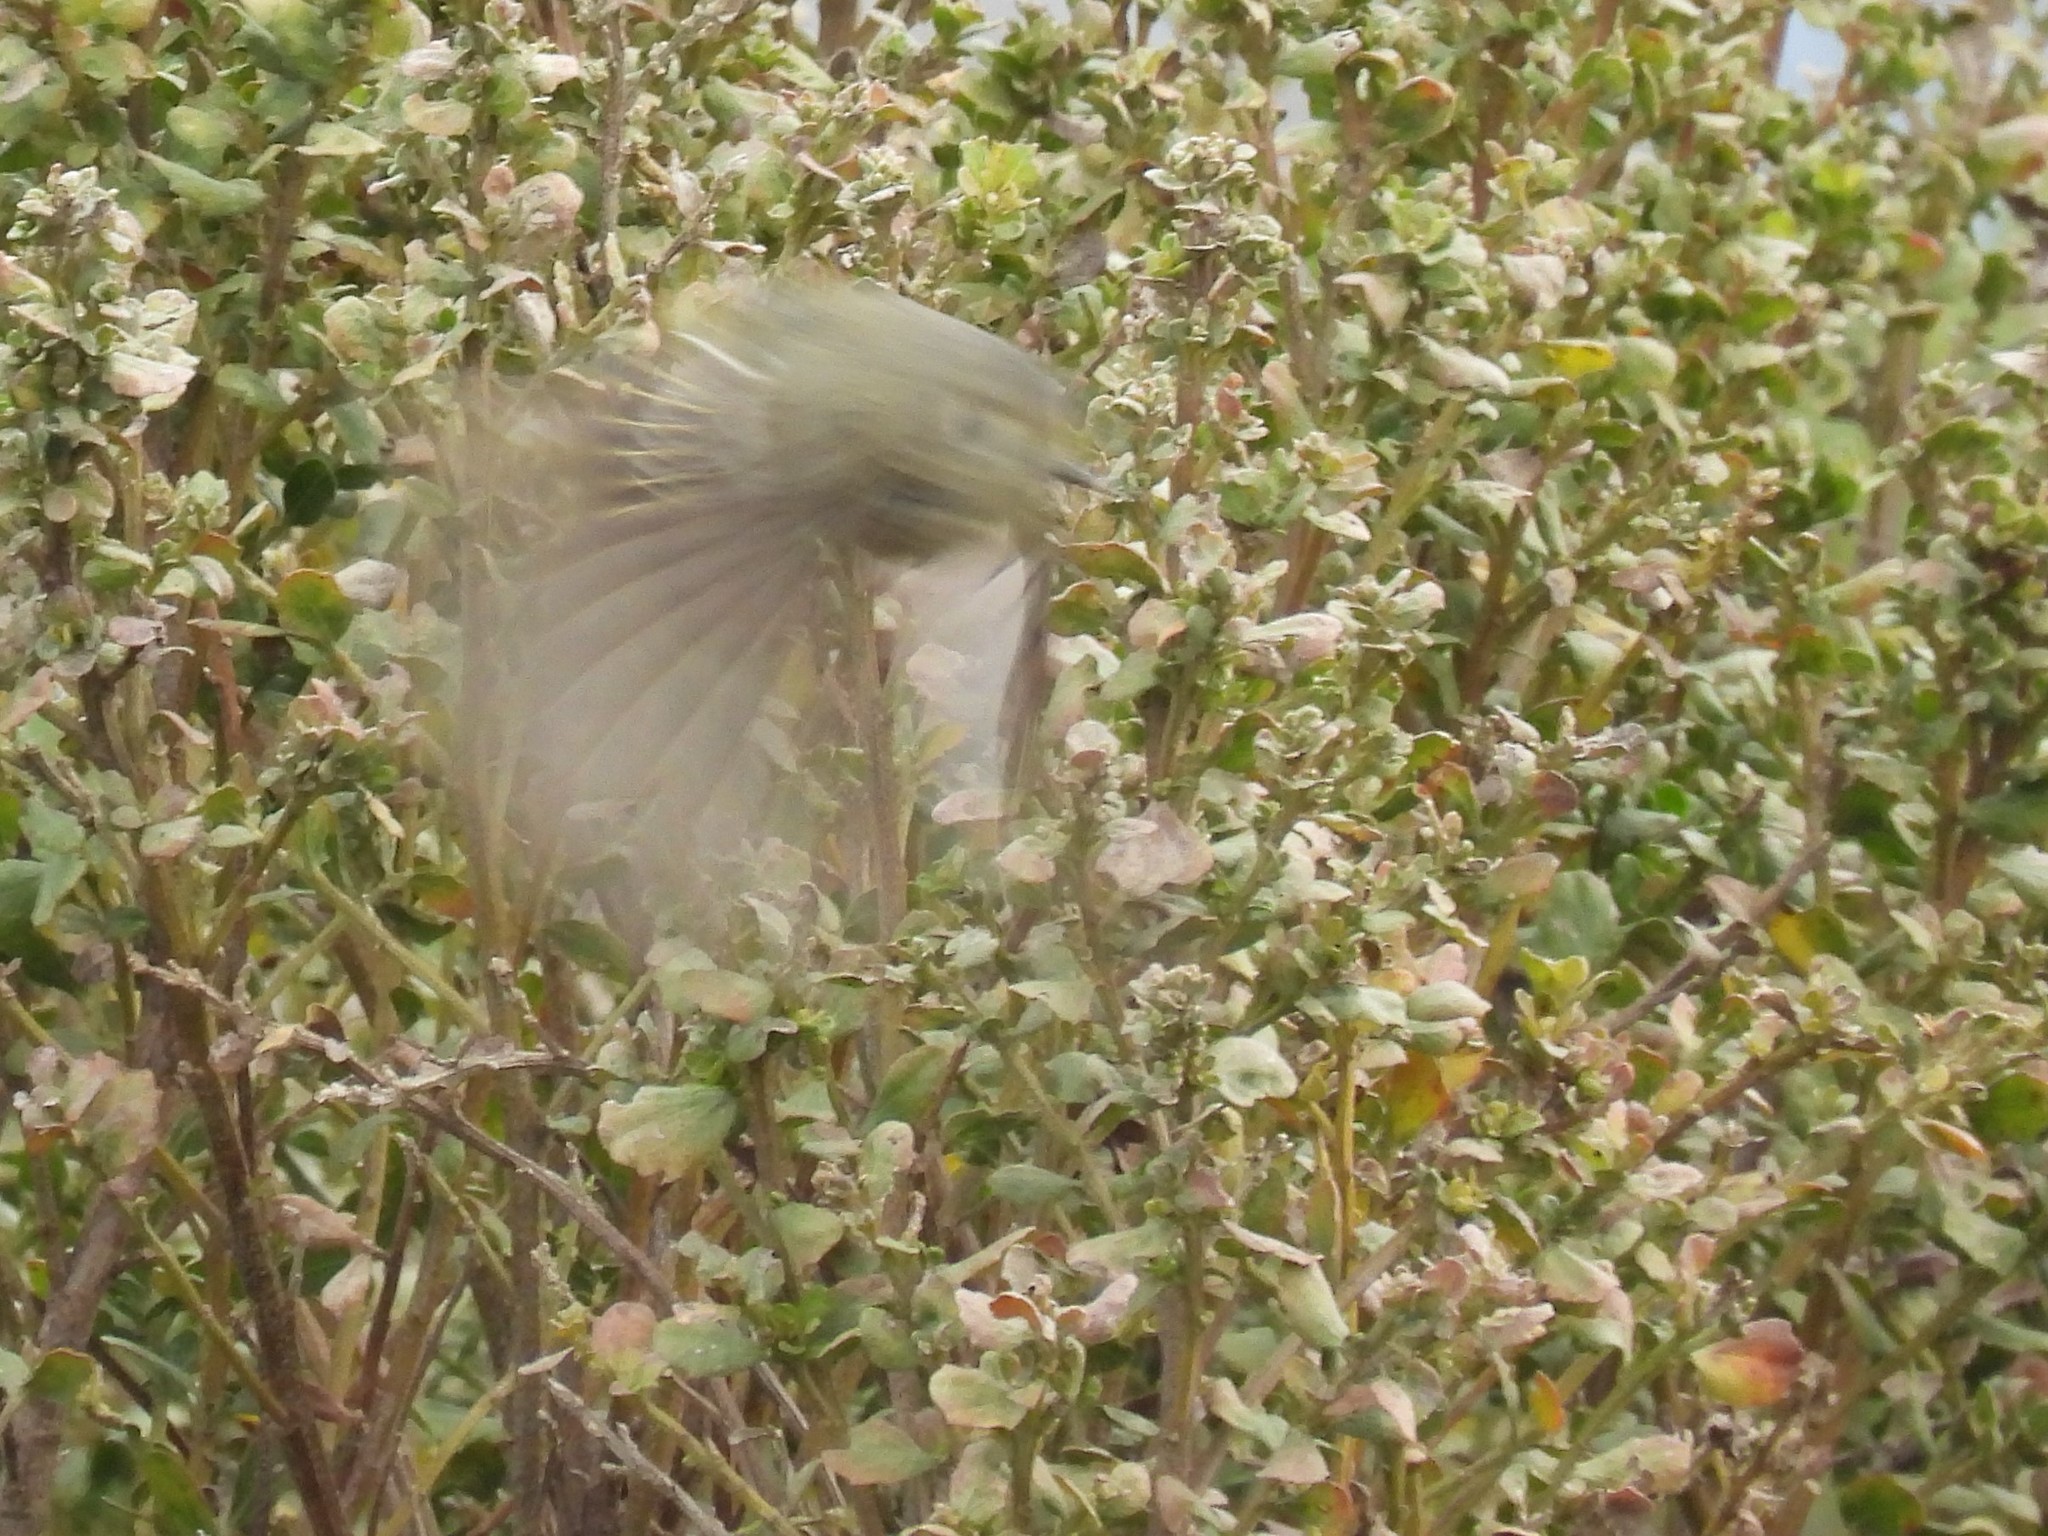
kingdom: Animalia
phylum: Chordata
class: Aves
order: Passeriformes
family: Regulidae
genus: Regulus
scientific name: Regulus calendula
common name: Ruby-crowned kinglet
